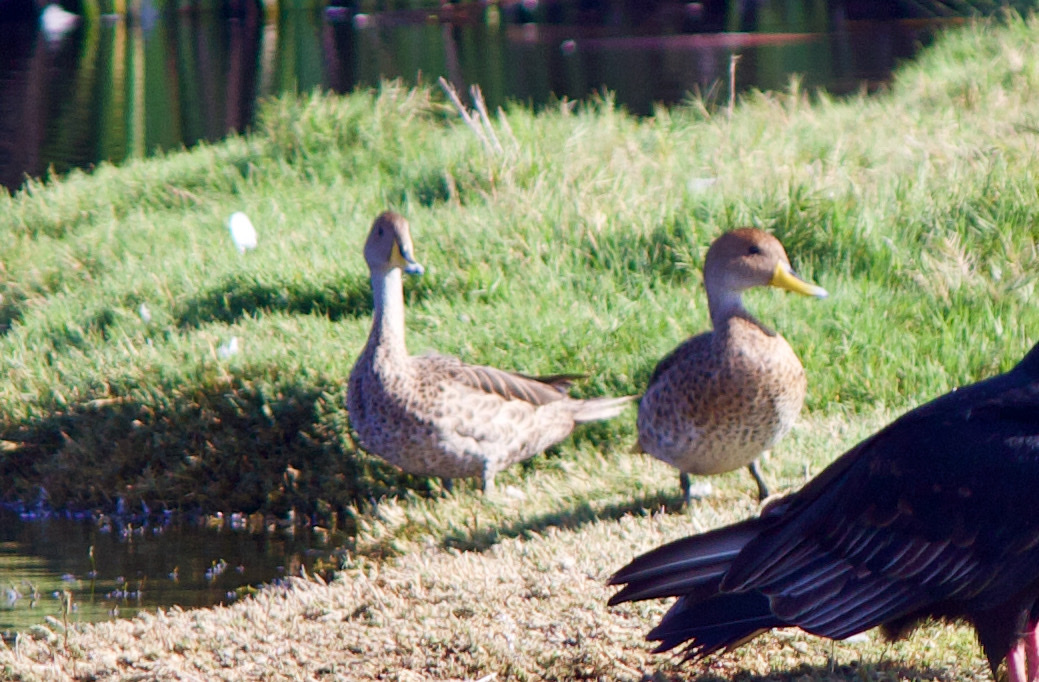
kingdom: Animalia
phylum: Chordata
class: Aves
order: Anseriformes
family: Anatidae
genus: Anas
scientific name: Anas georgica
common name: Yellow-billed pintail
